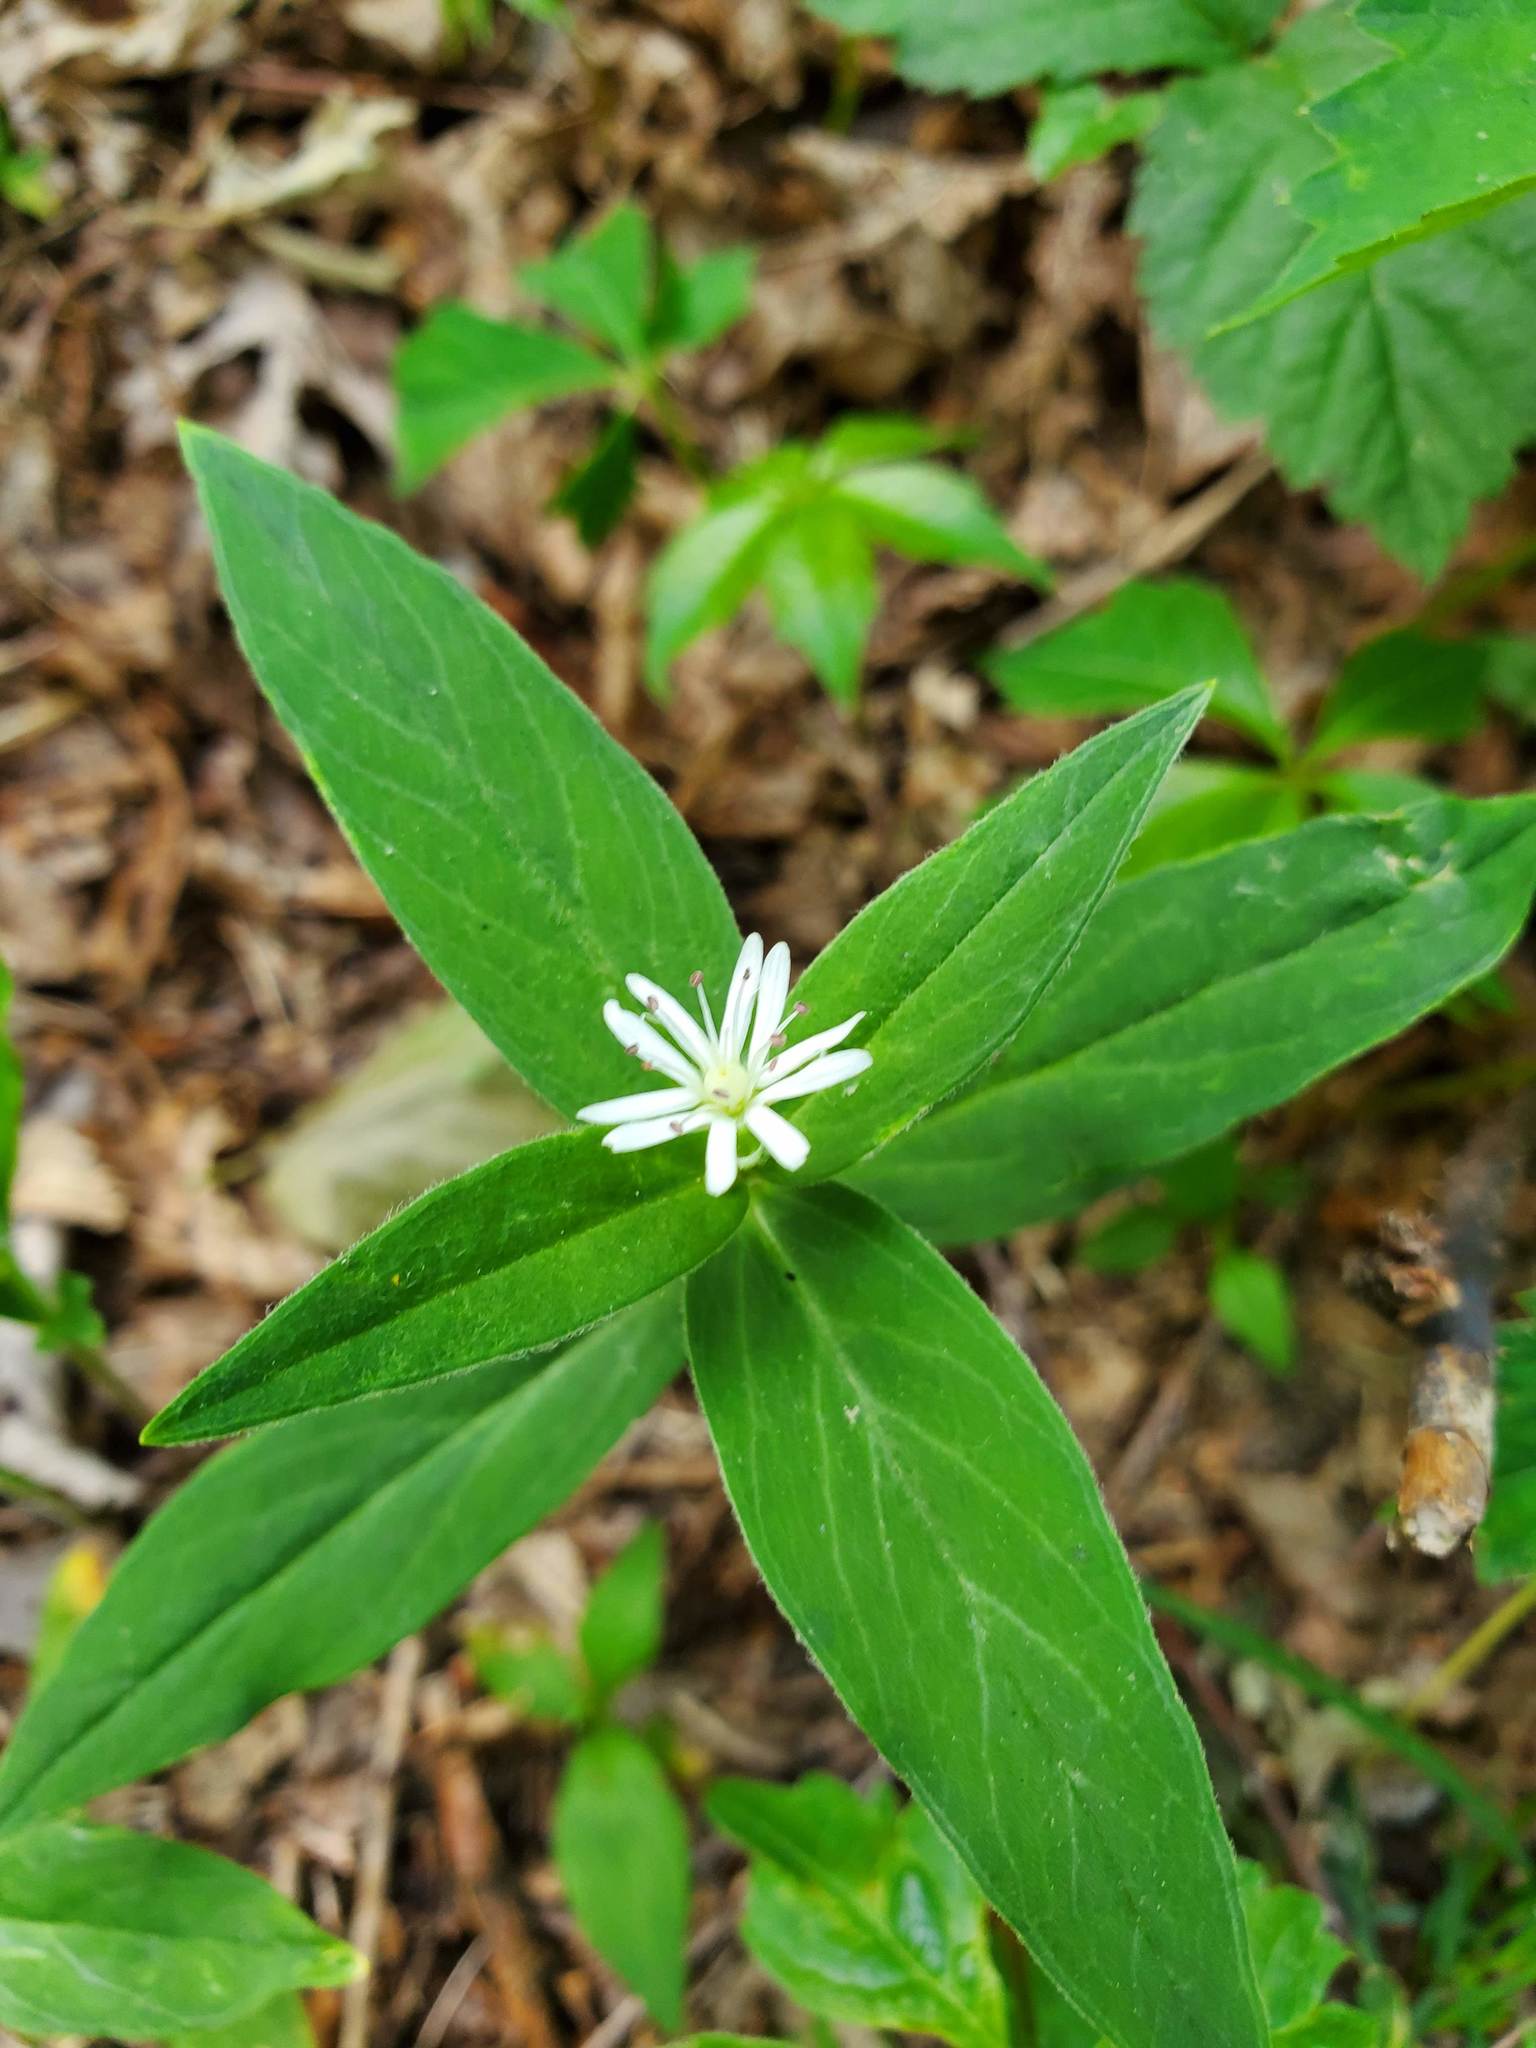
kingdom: Plantae
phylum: Tracheophyta
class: Magnoliopsida
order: Caryophyllales
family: Caryophyllaceae
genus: Stellaria
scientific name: Stellaria pubera
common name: Star chickweed
